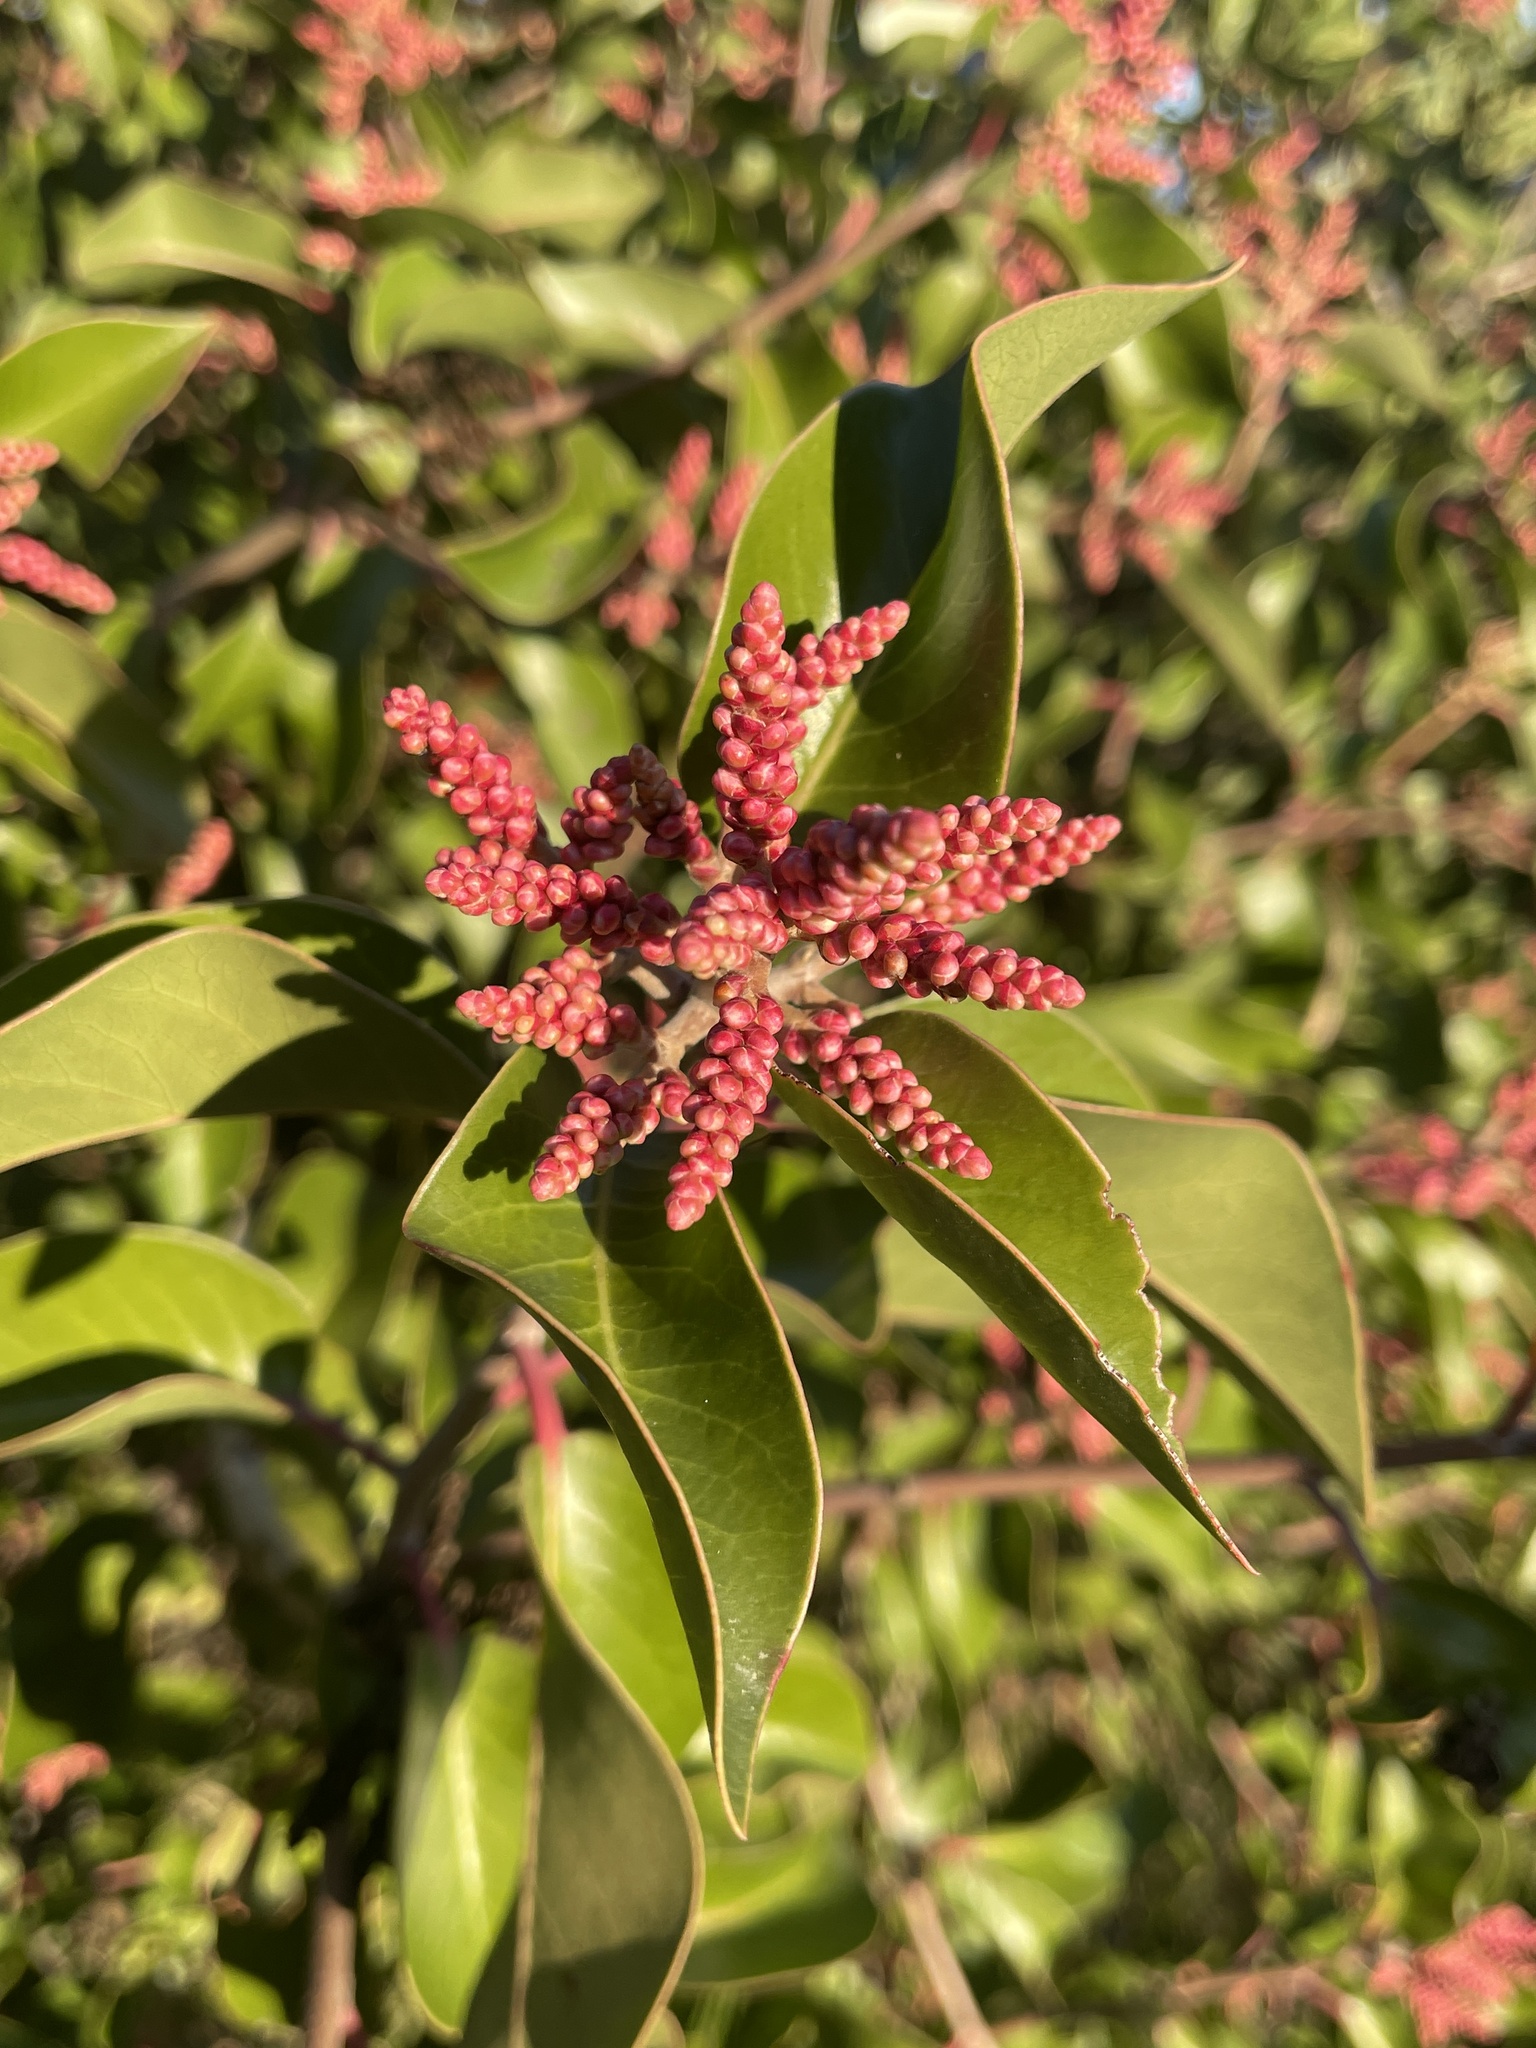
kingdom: Plantae
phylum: Tracheophyta
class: Magnoliopsida
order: Sapindales
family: Anacardiaceae
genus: Rhus
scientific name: Rhus ovata
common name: Sugar sumac
